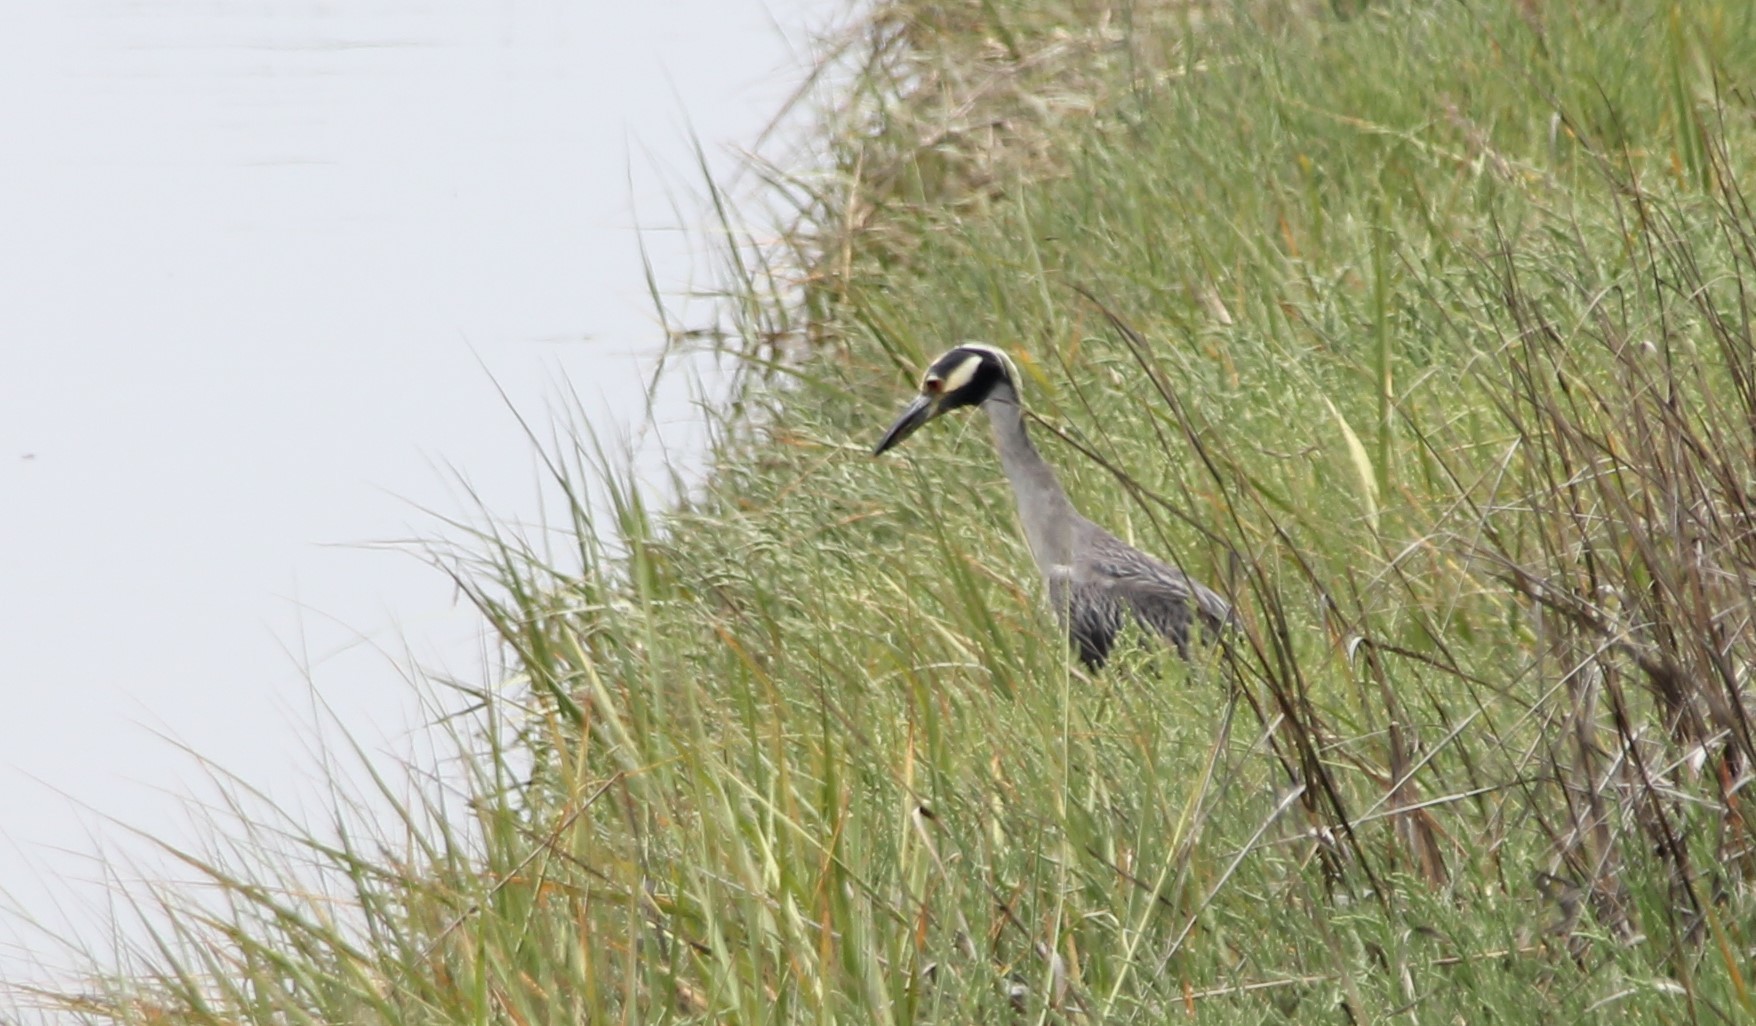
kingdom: Animalia
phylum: Chordata
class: Aves
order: Pelecaniformes
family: Ardeidae
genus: Nyctanassa
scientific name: Nyctanassa violacea
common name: Yellow-crowned night heron
